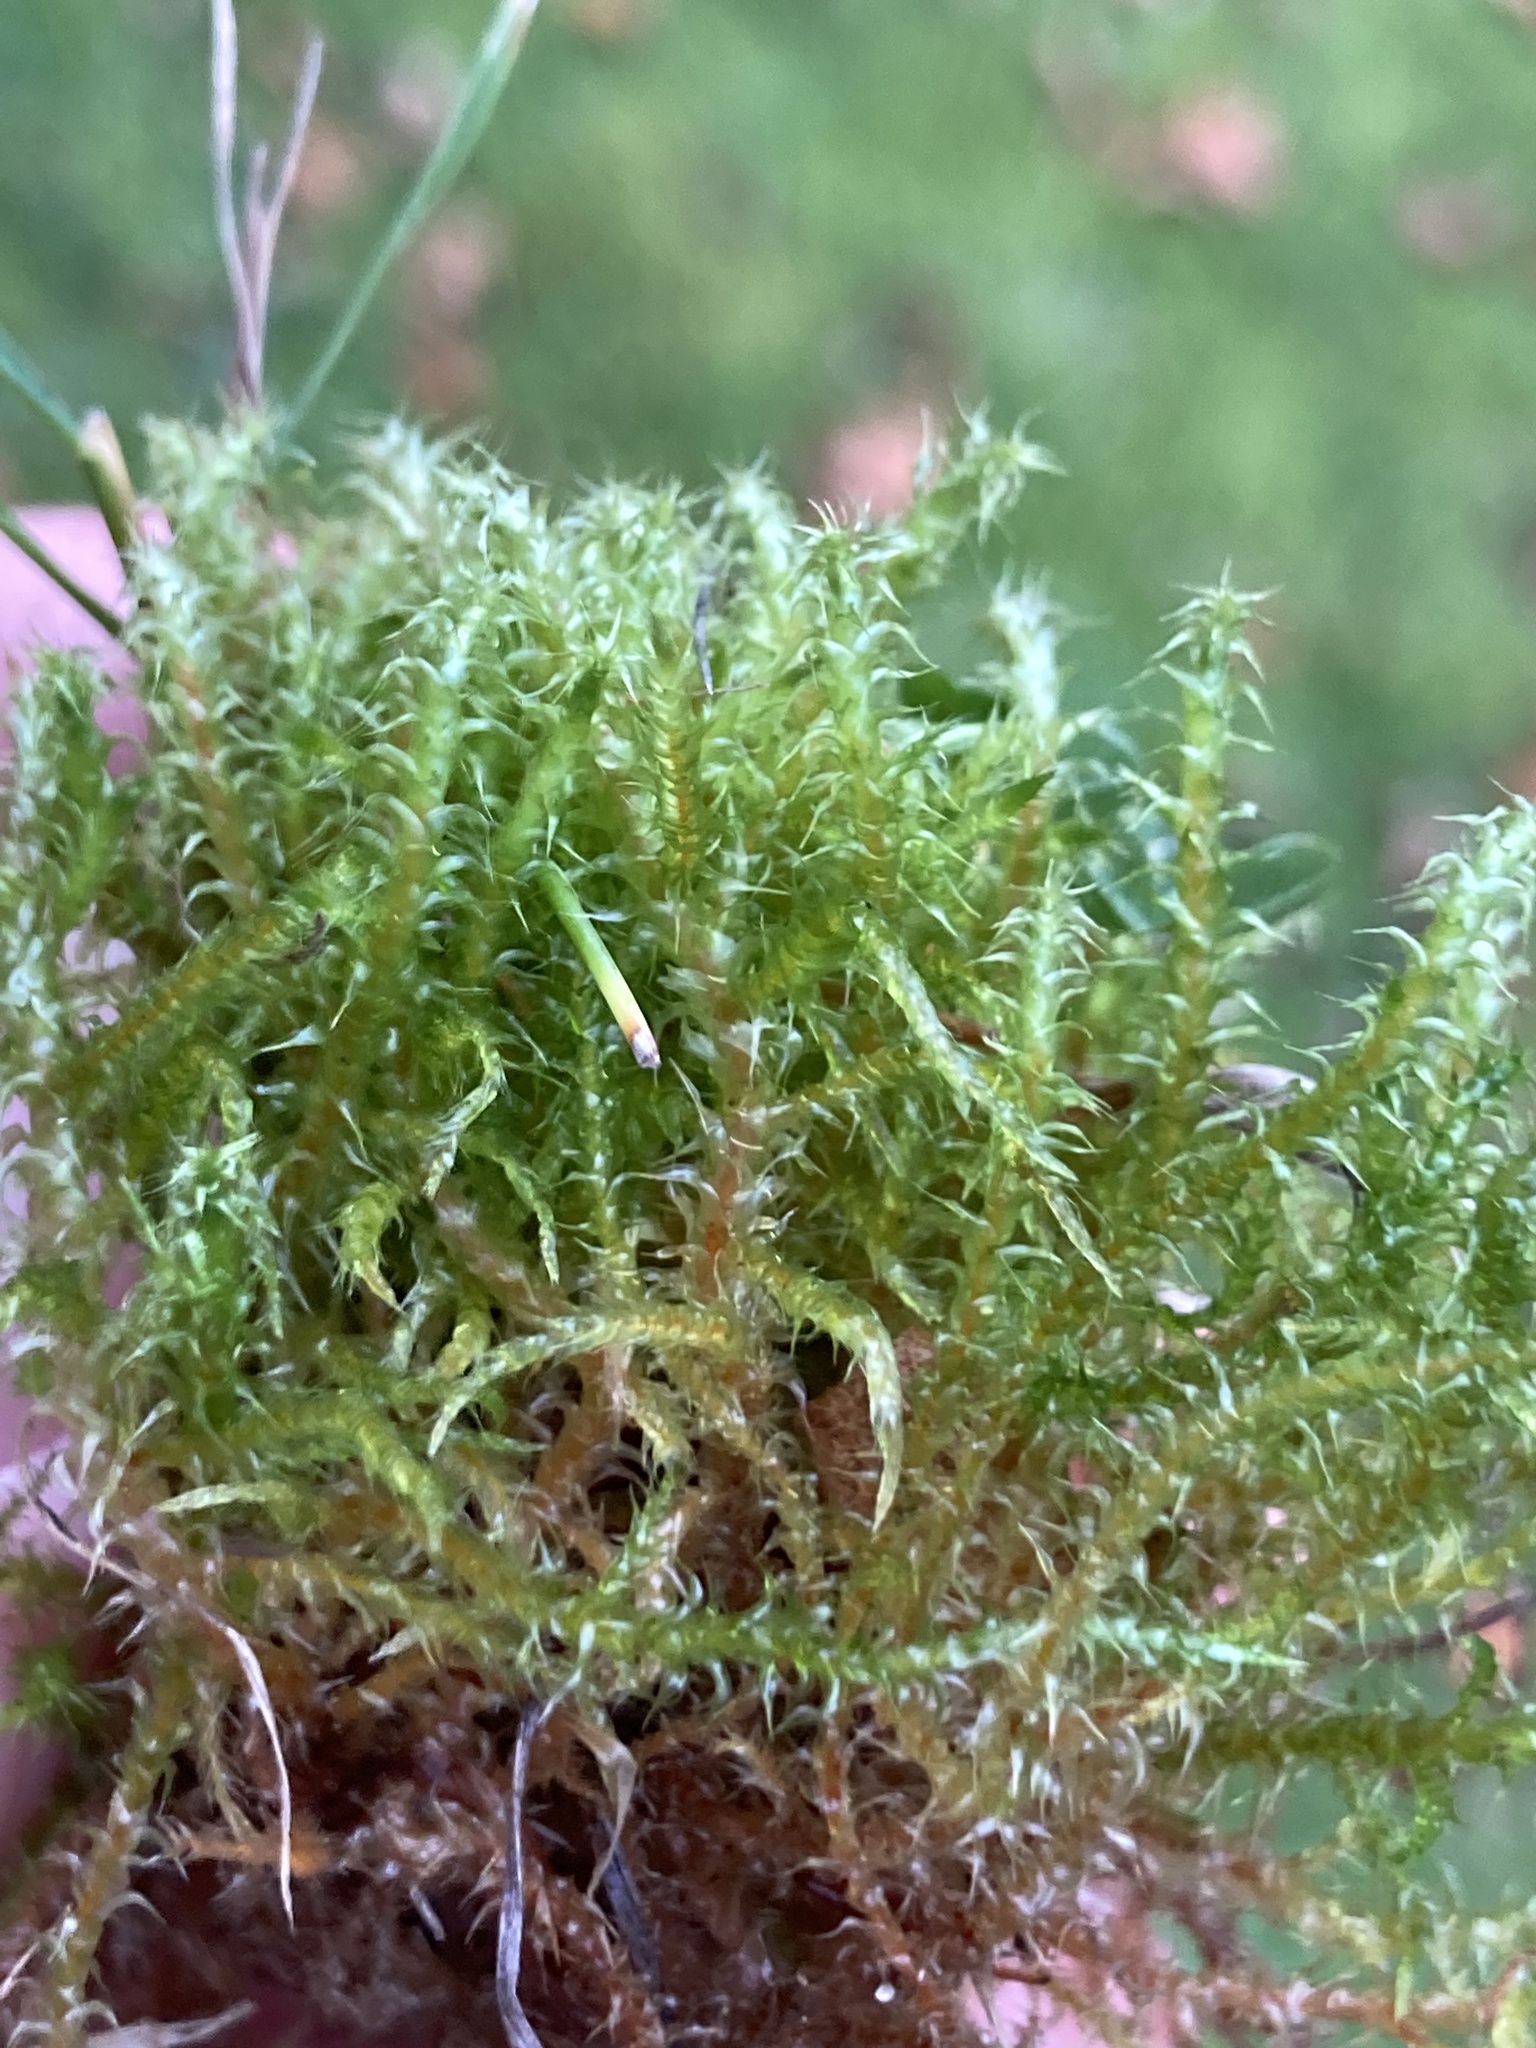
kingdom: Plantae
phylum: Bryophyta
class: Bryopsida
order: Hypnales
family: Hylocomiaceae
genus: Rhytidiadelphus
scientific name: Rhytidiadelphus squarrosus
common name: Springy turf-moss
